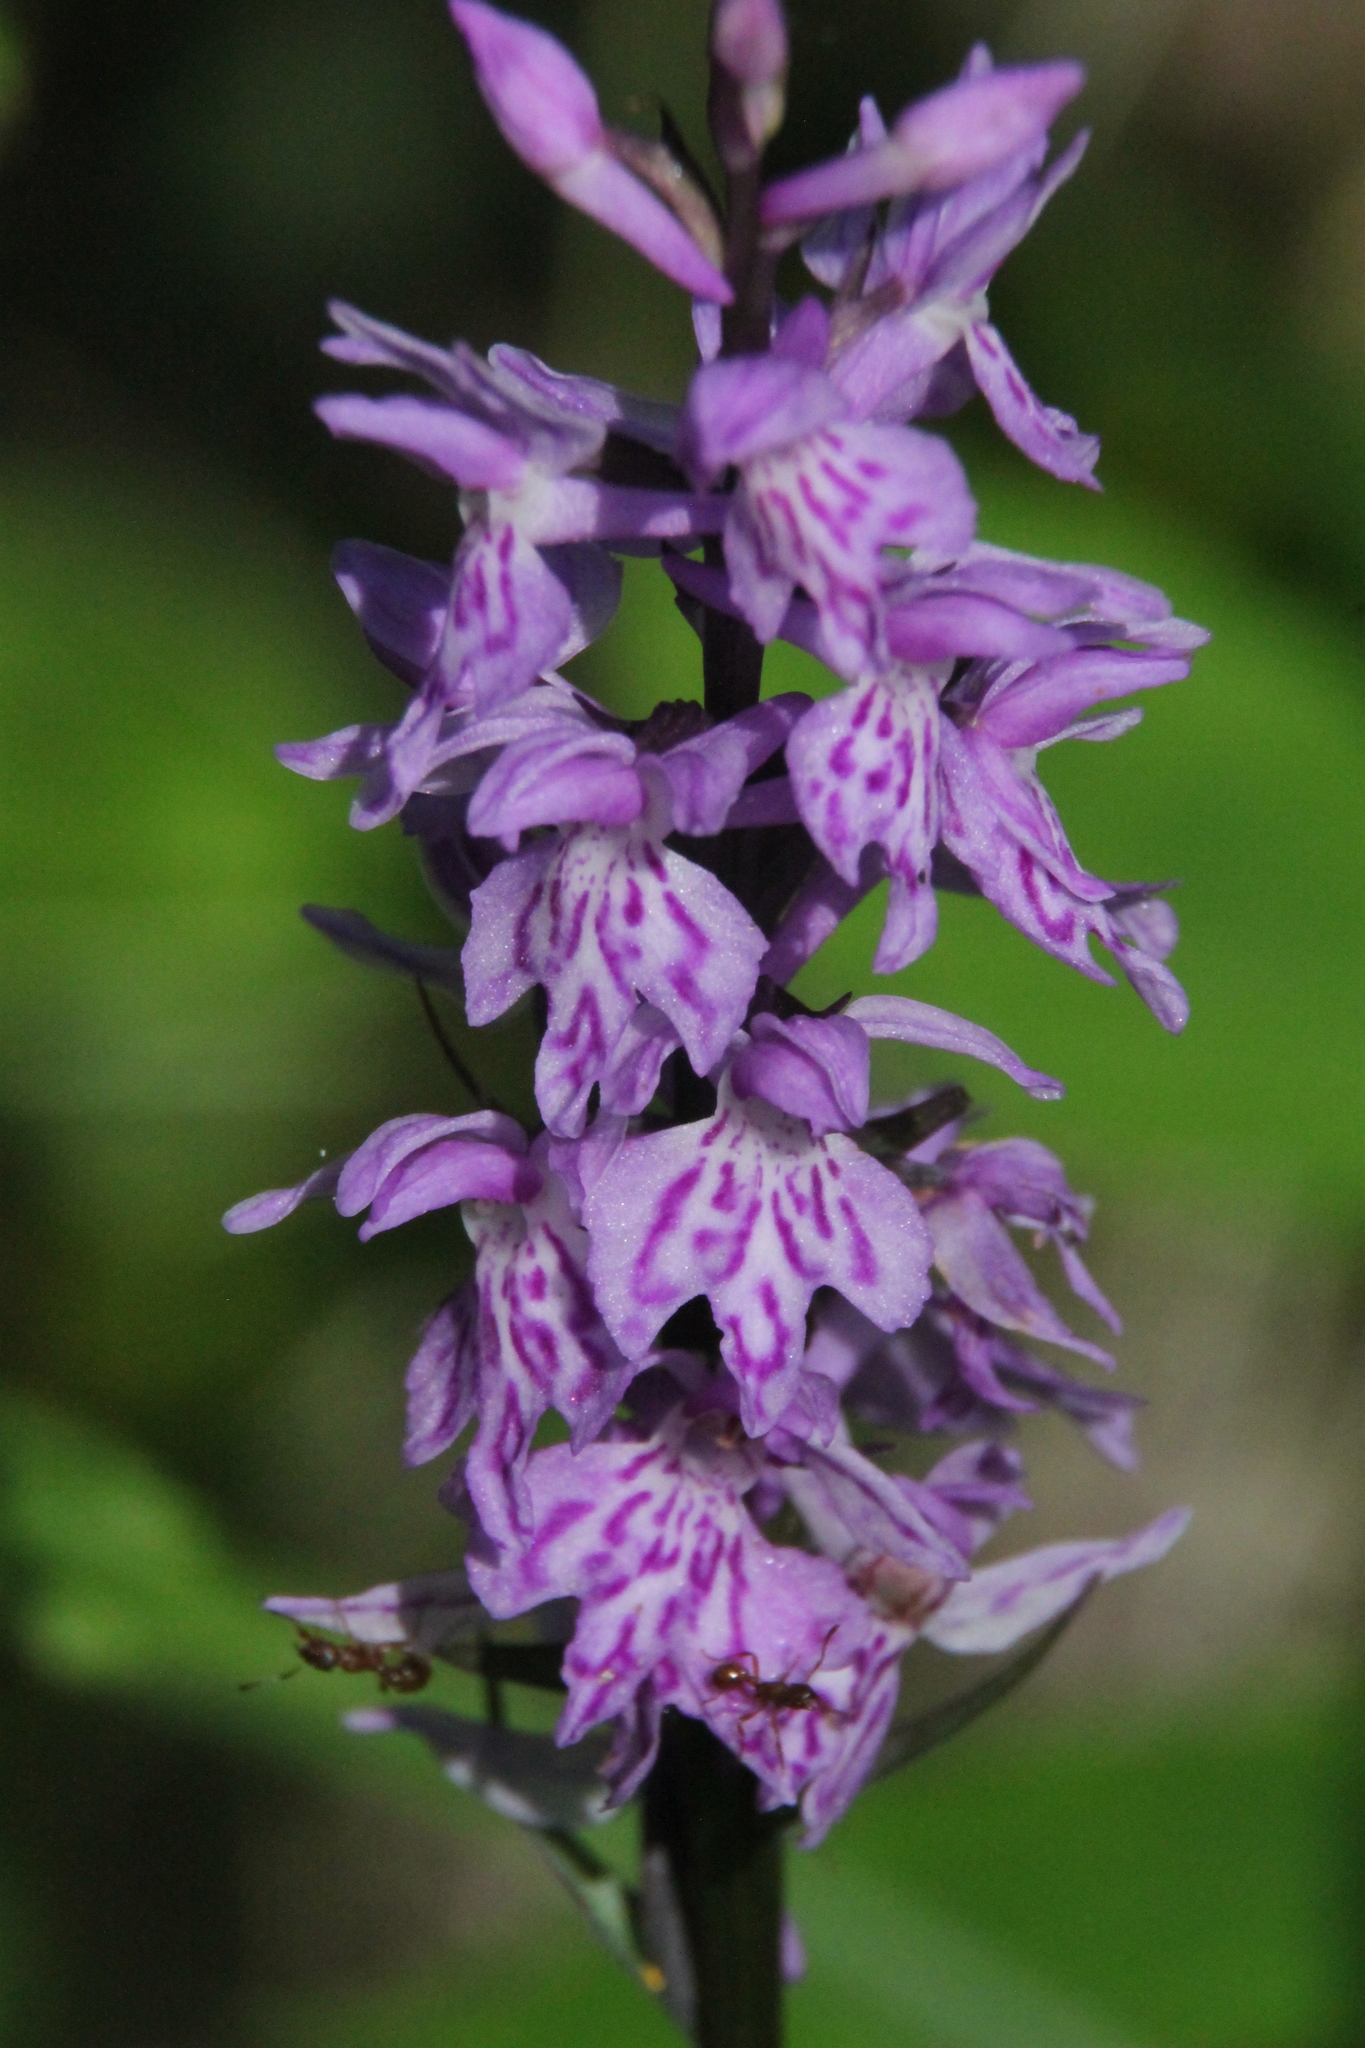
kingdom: Plantae
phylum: Tracheophyta
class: Liliopsida
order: Asparagales
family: Orchidaceae
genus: Dactylorhiza
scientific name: Dactylorhiza maculata
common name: Heath spotted-orchid
